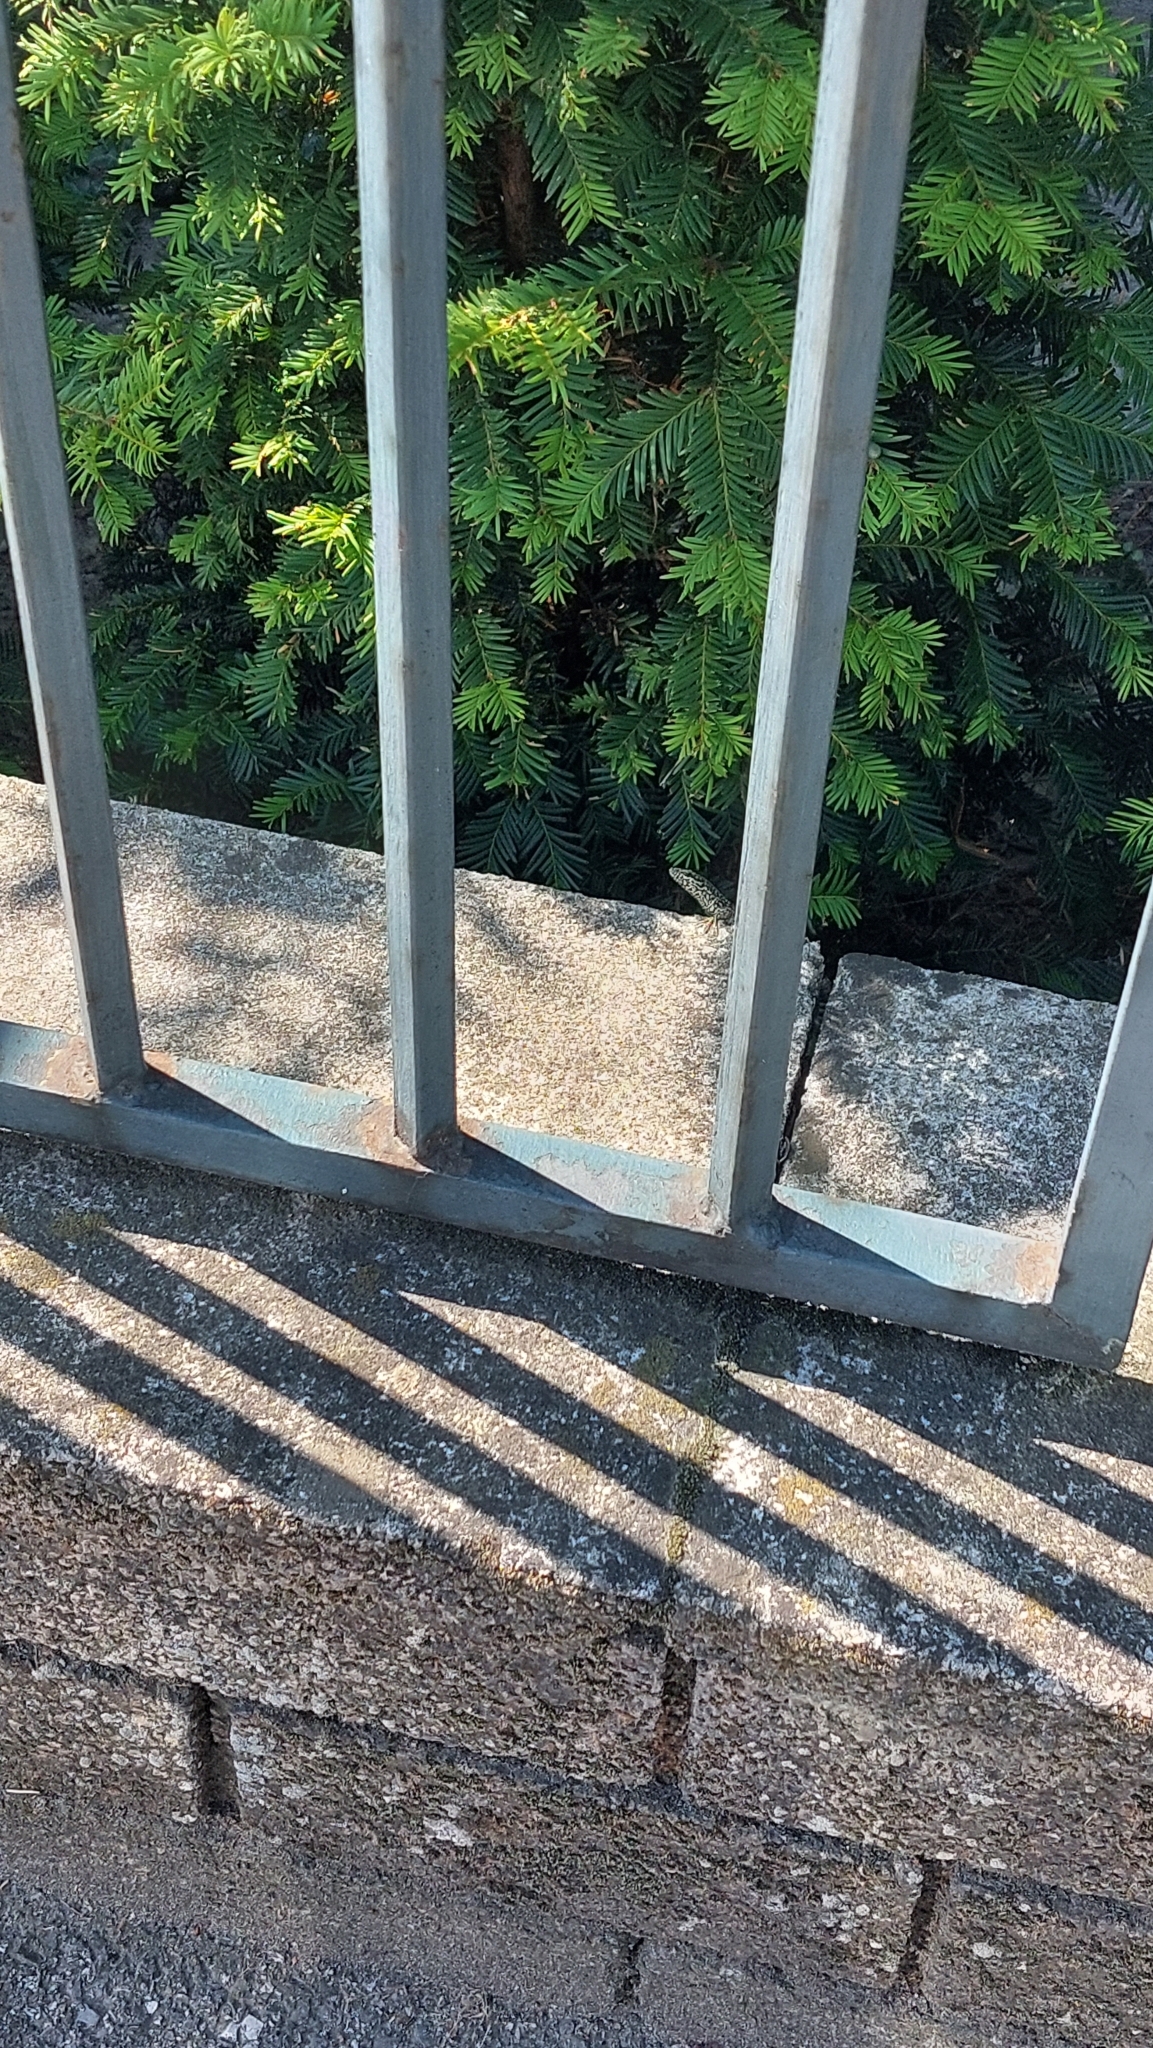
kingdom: Animalia
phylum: Chordata
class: Squamata
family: Lacertidae
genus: Podarcis
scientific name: Podarcis muralis
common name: Common wall lizard
